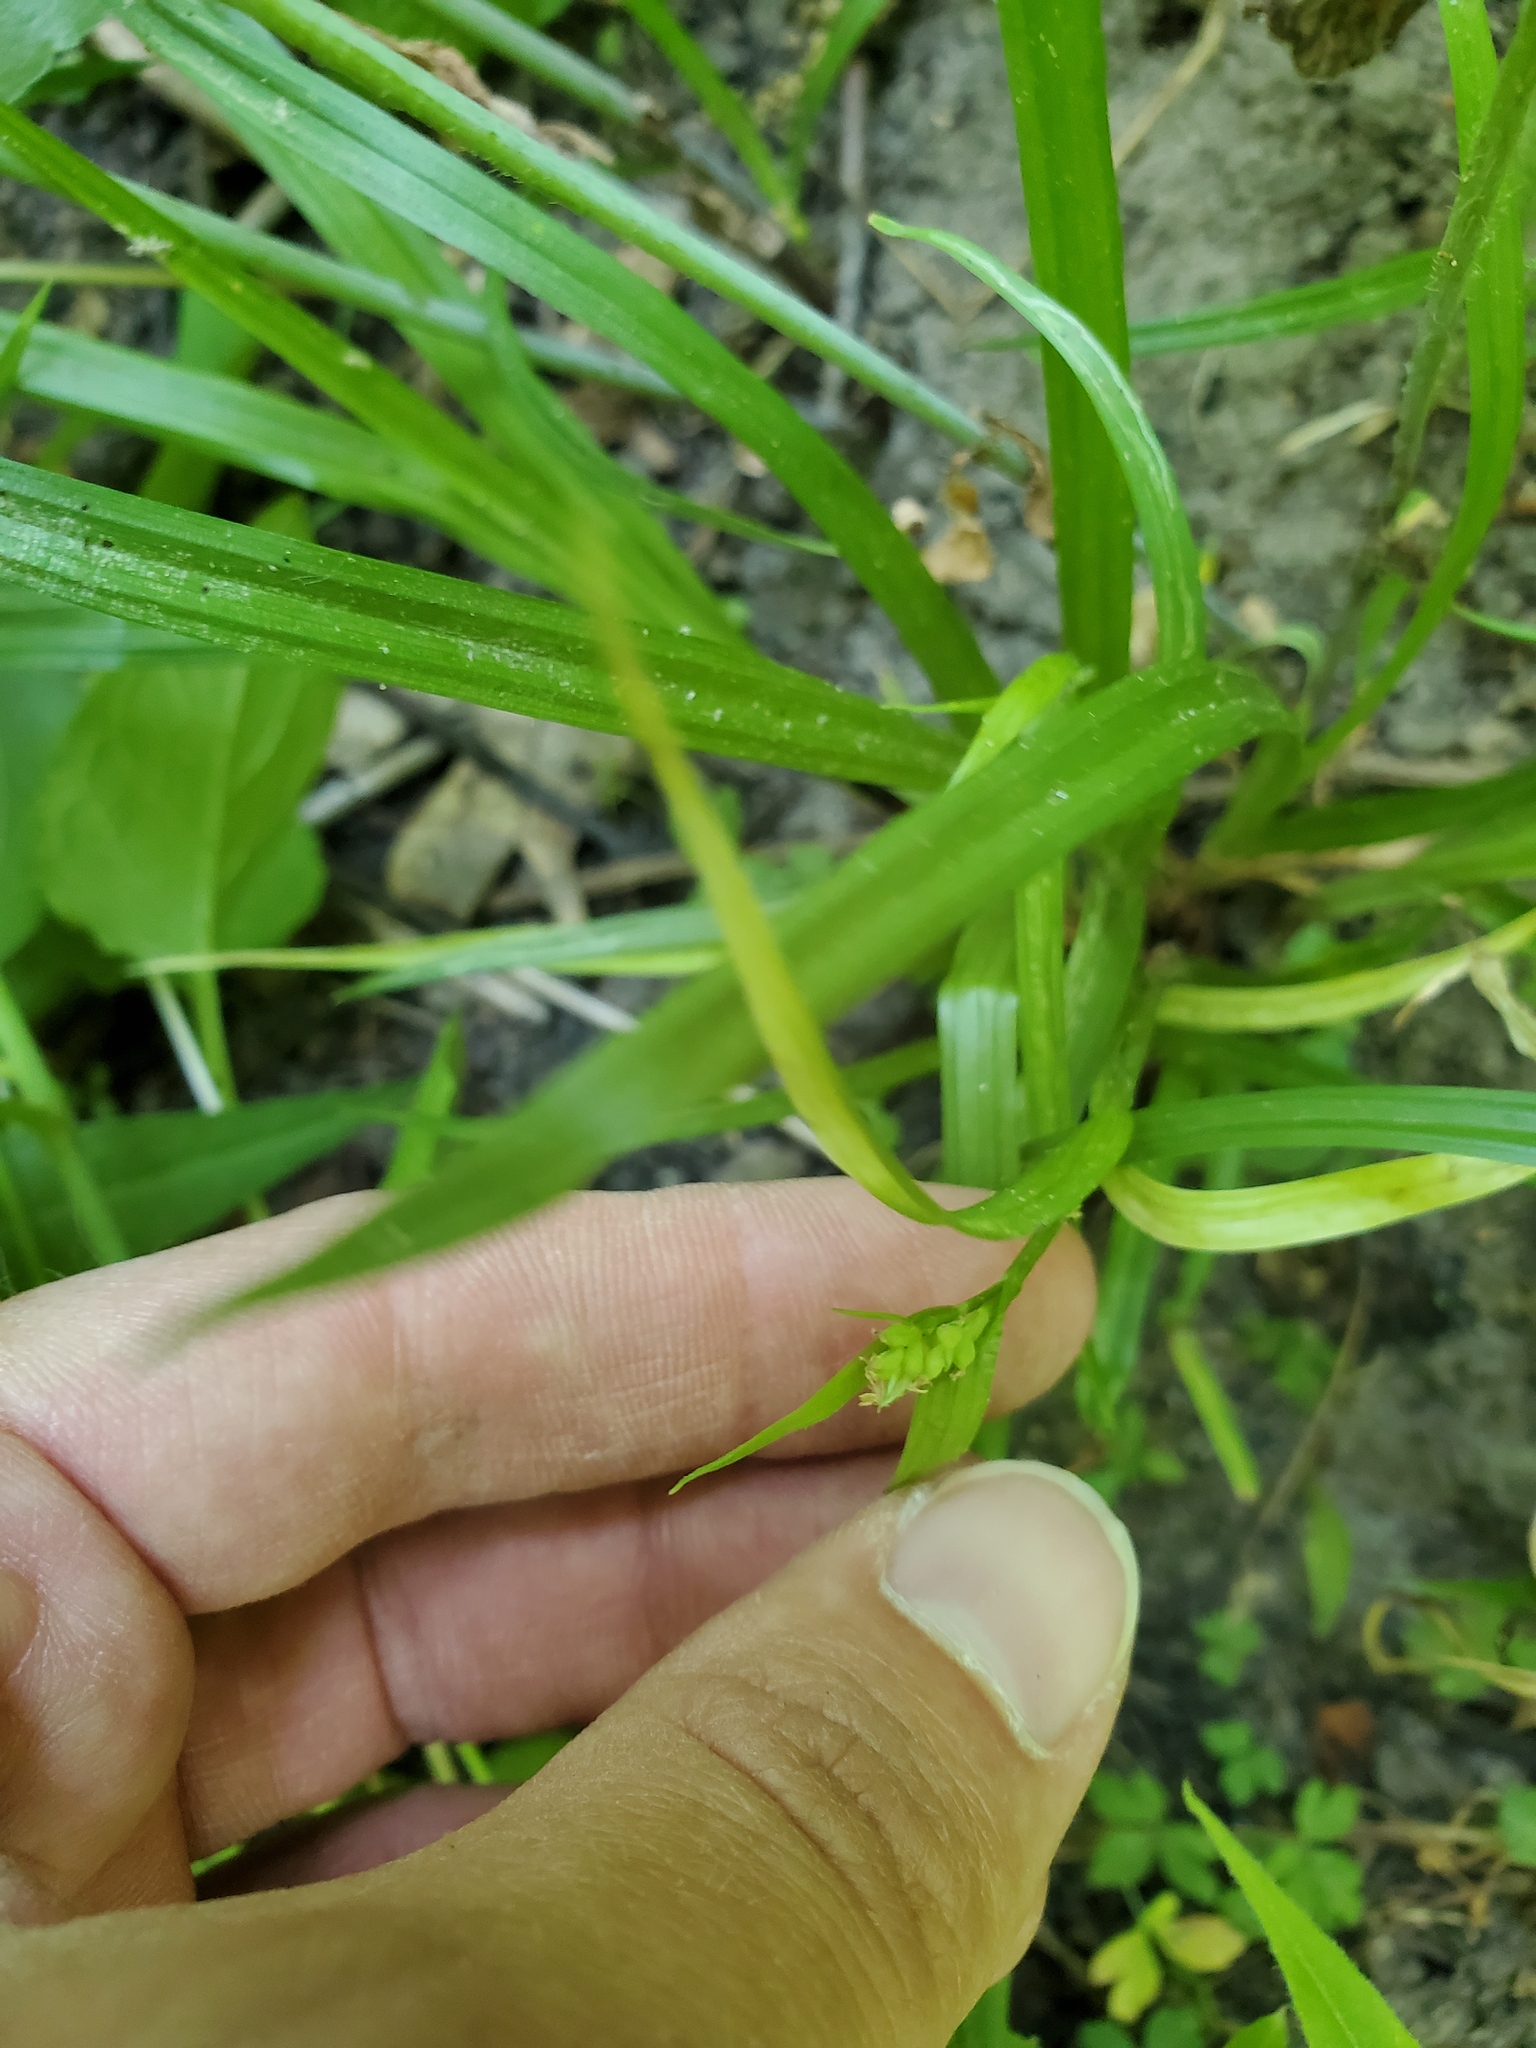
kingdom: Plantae
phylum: Tracheophyta
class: Liliopsida
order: Poales
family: Cyperaceae
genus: Carex
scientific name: Carex blanda
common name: Bland sedge
